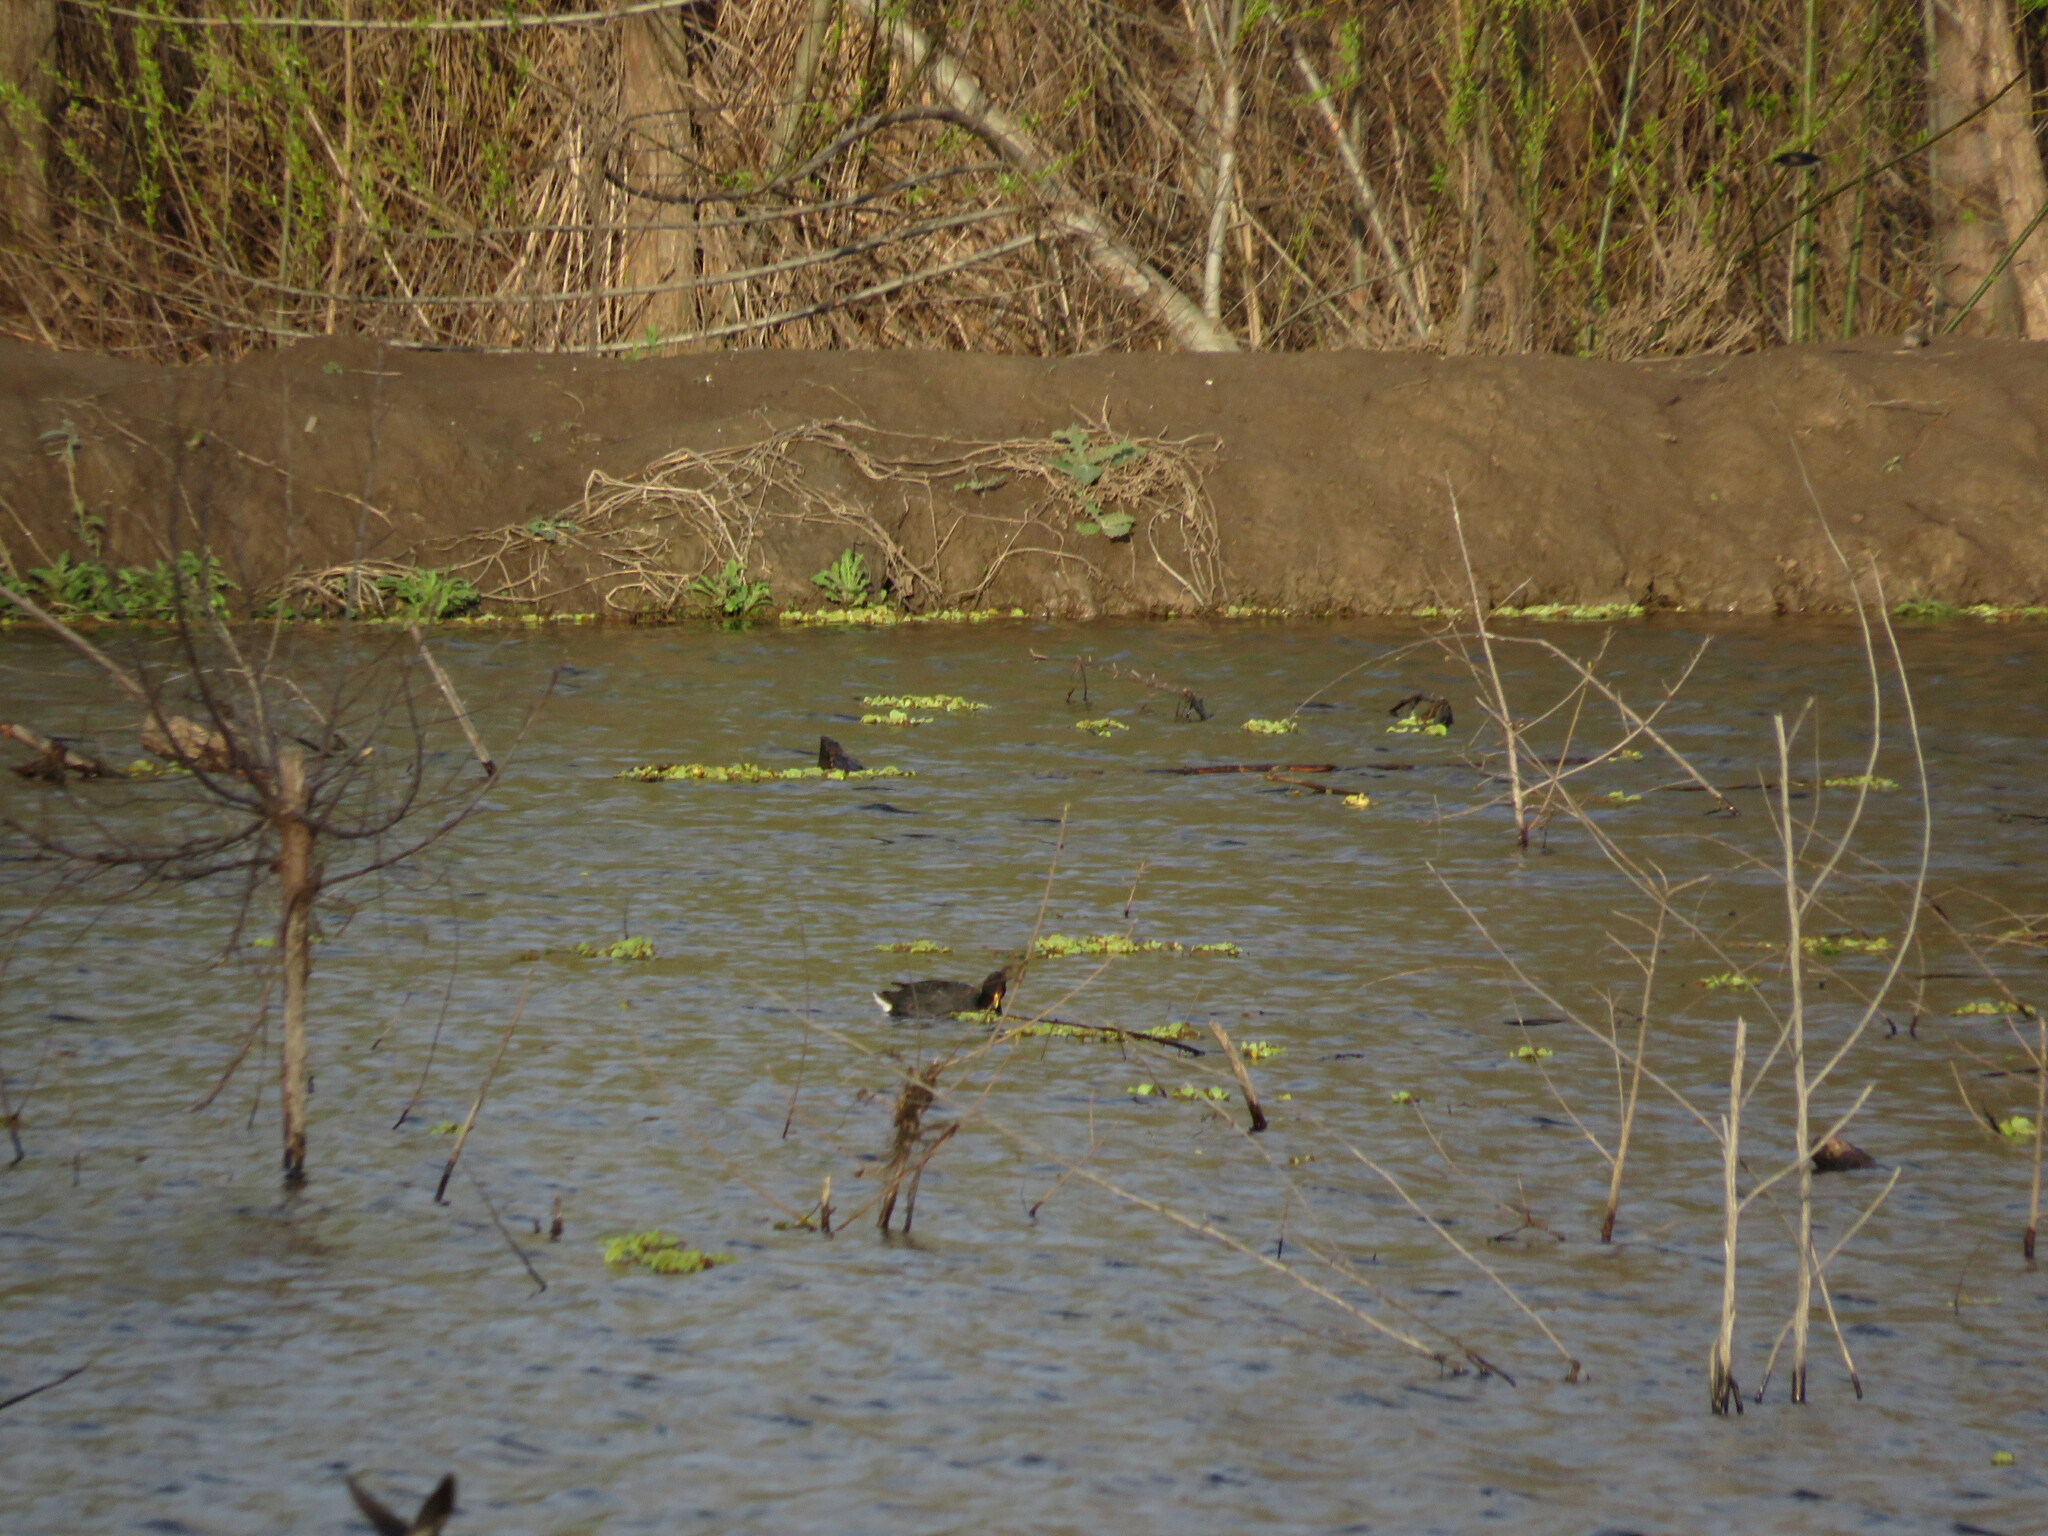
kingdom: Animalia
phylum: Chordata
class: Aves
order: Gruiformes
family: Rallidae
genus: Fulica
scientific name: Fulica rufifrons
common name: Red-fronted coot
